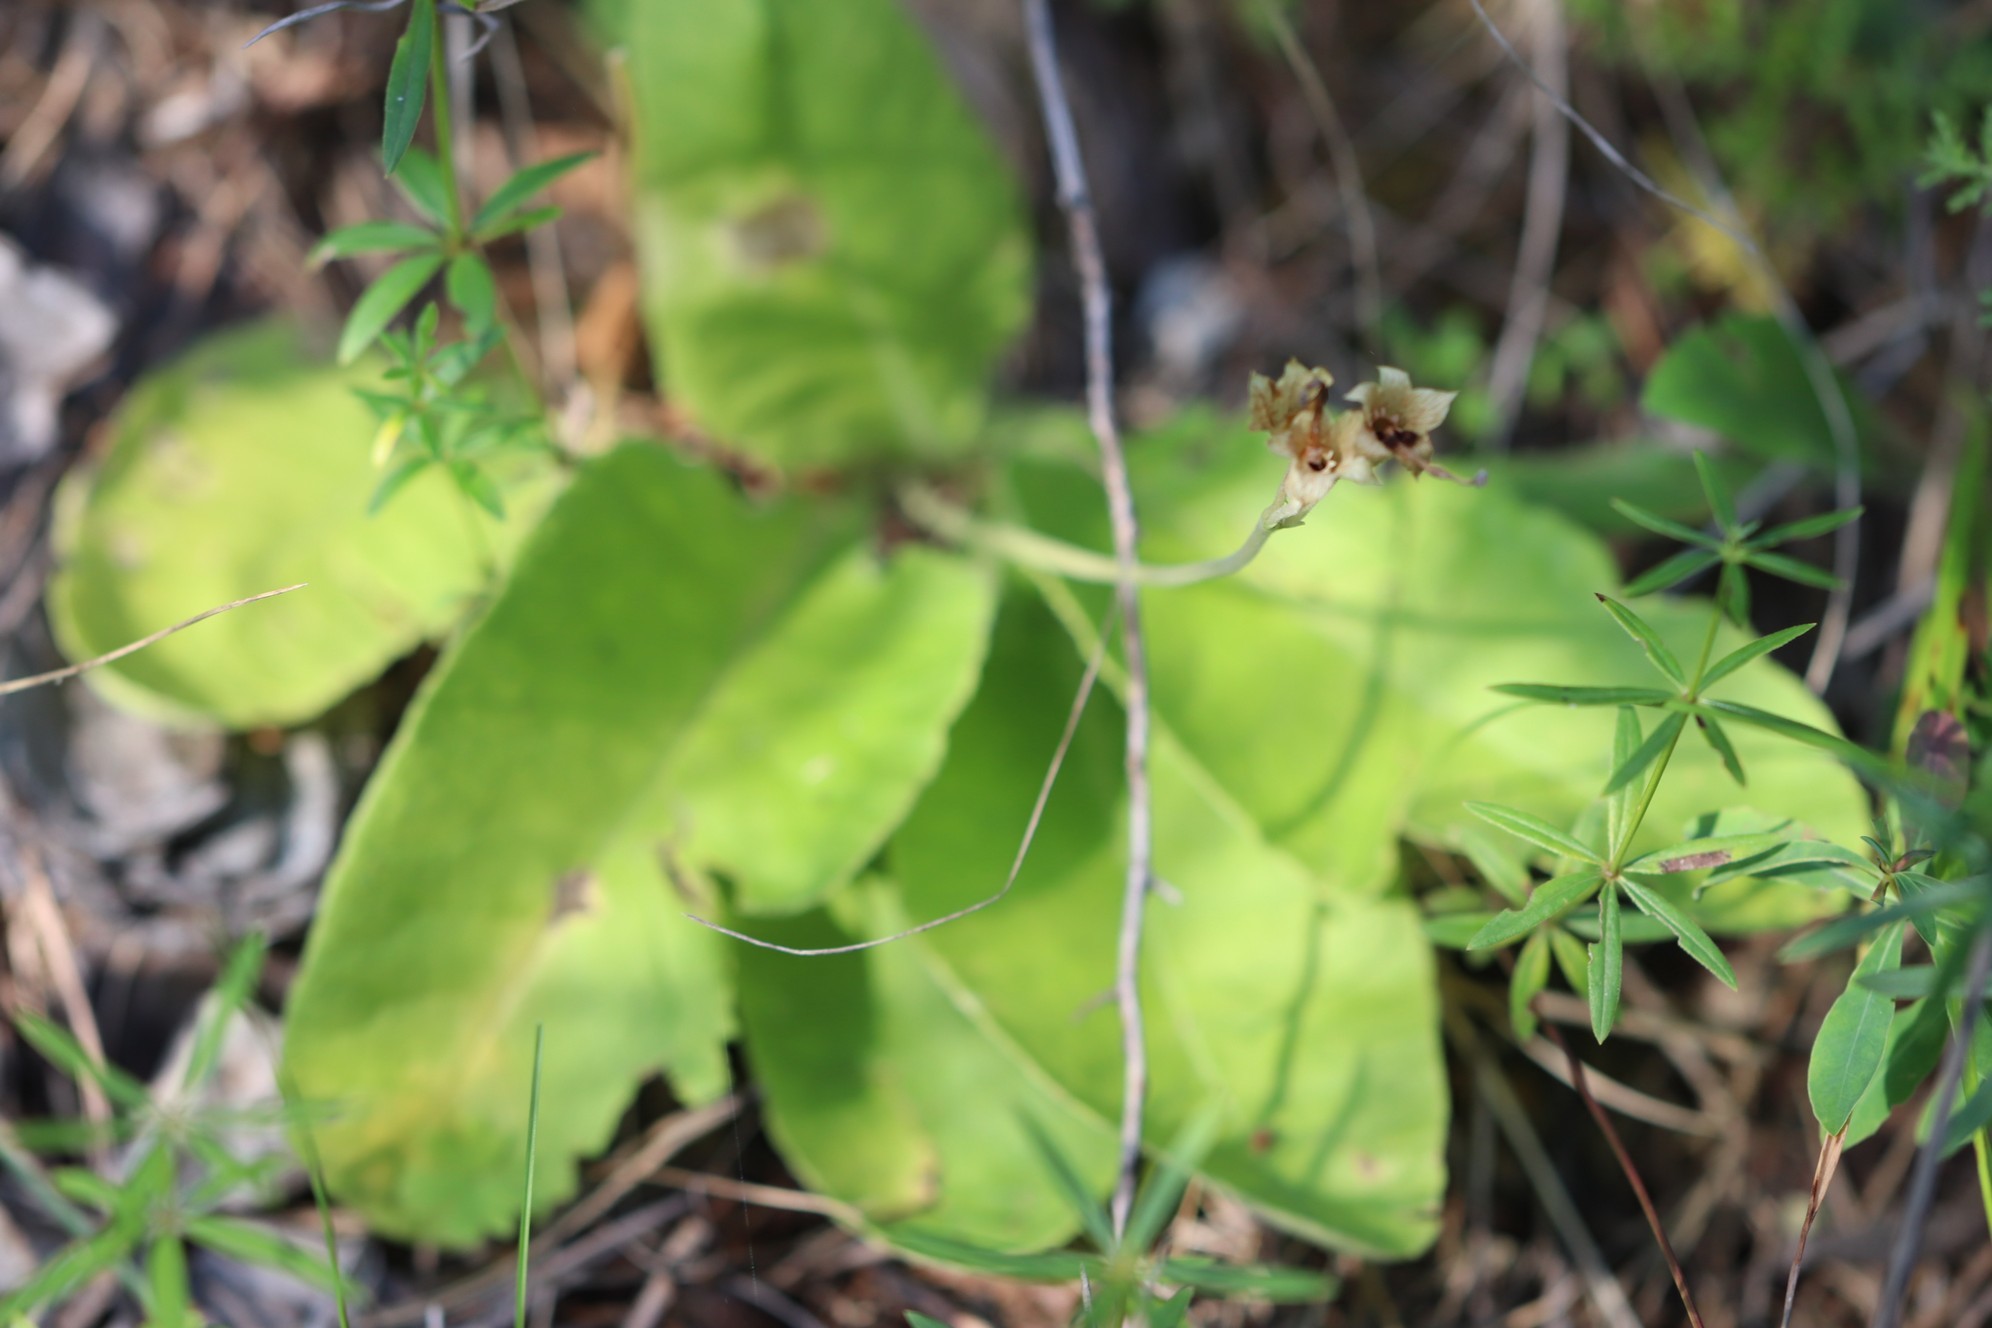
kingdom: Plantae
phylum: Tracheophyta
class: Magnoliopsida
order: Ericales
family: Primulaceae
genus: Primula
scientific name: Primula veris
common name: Cowslip
